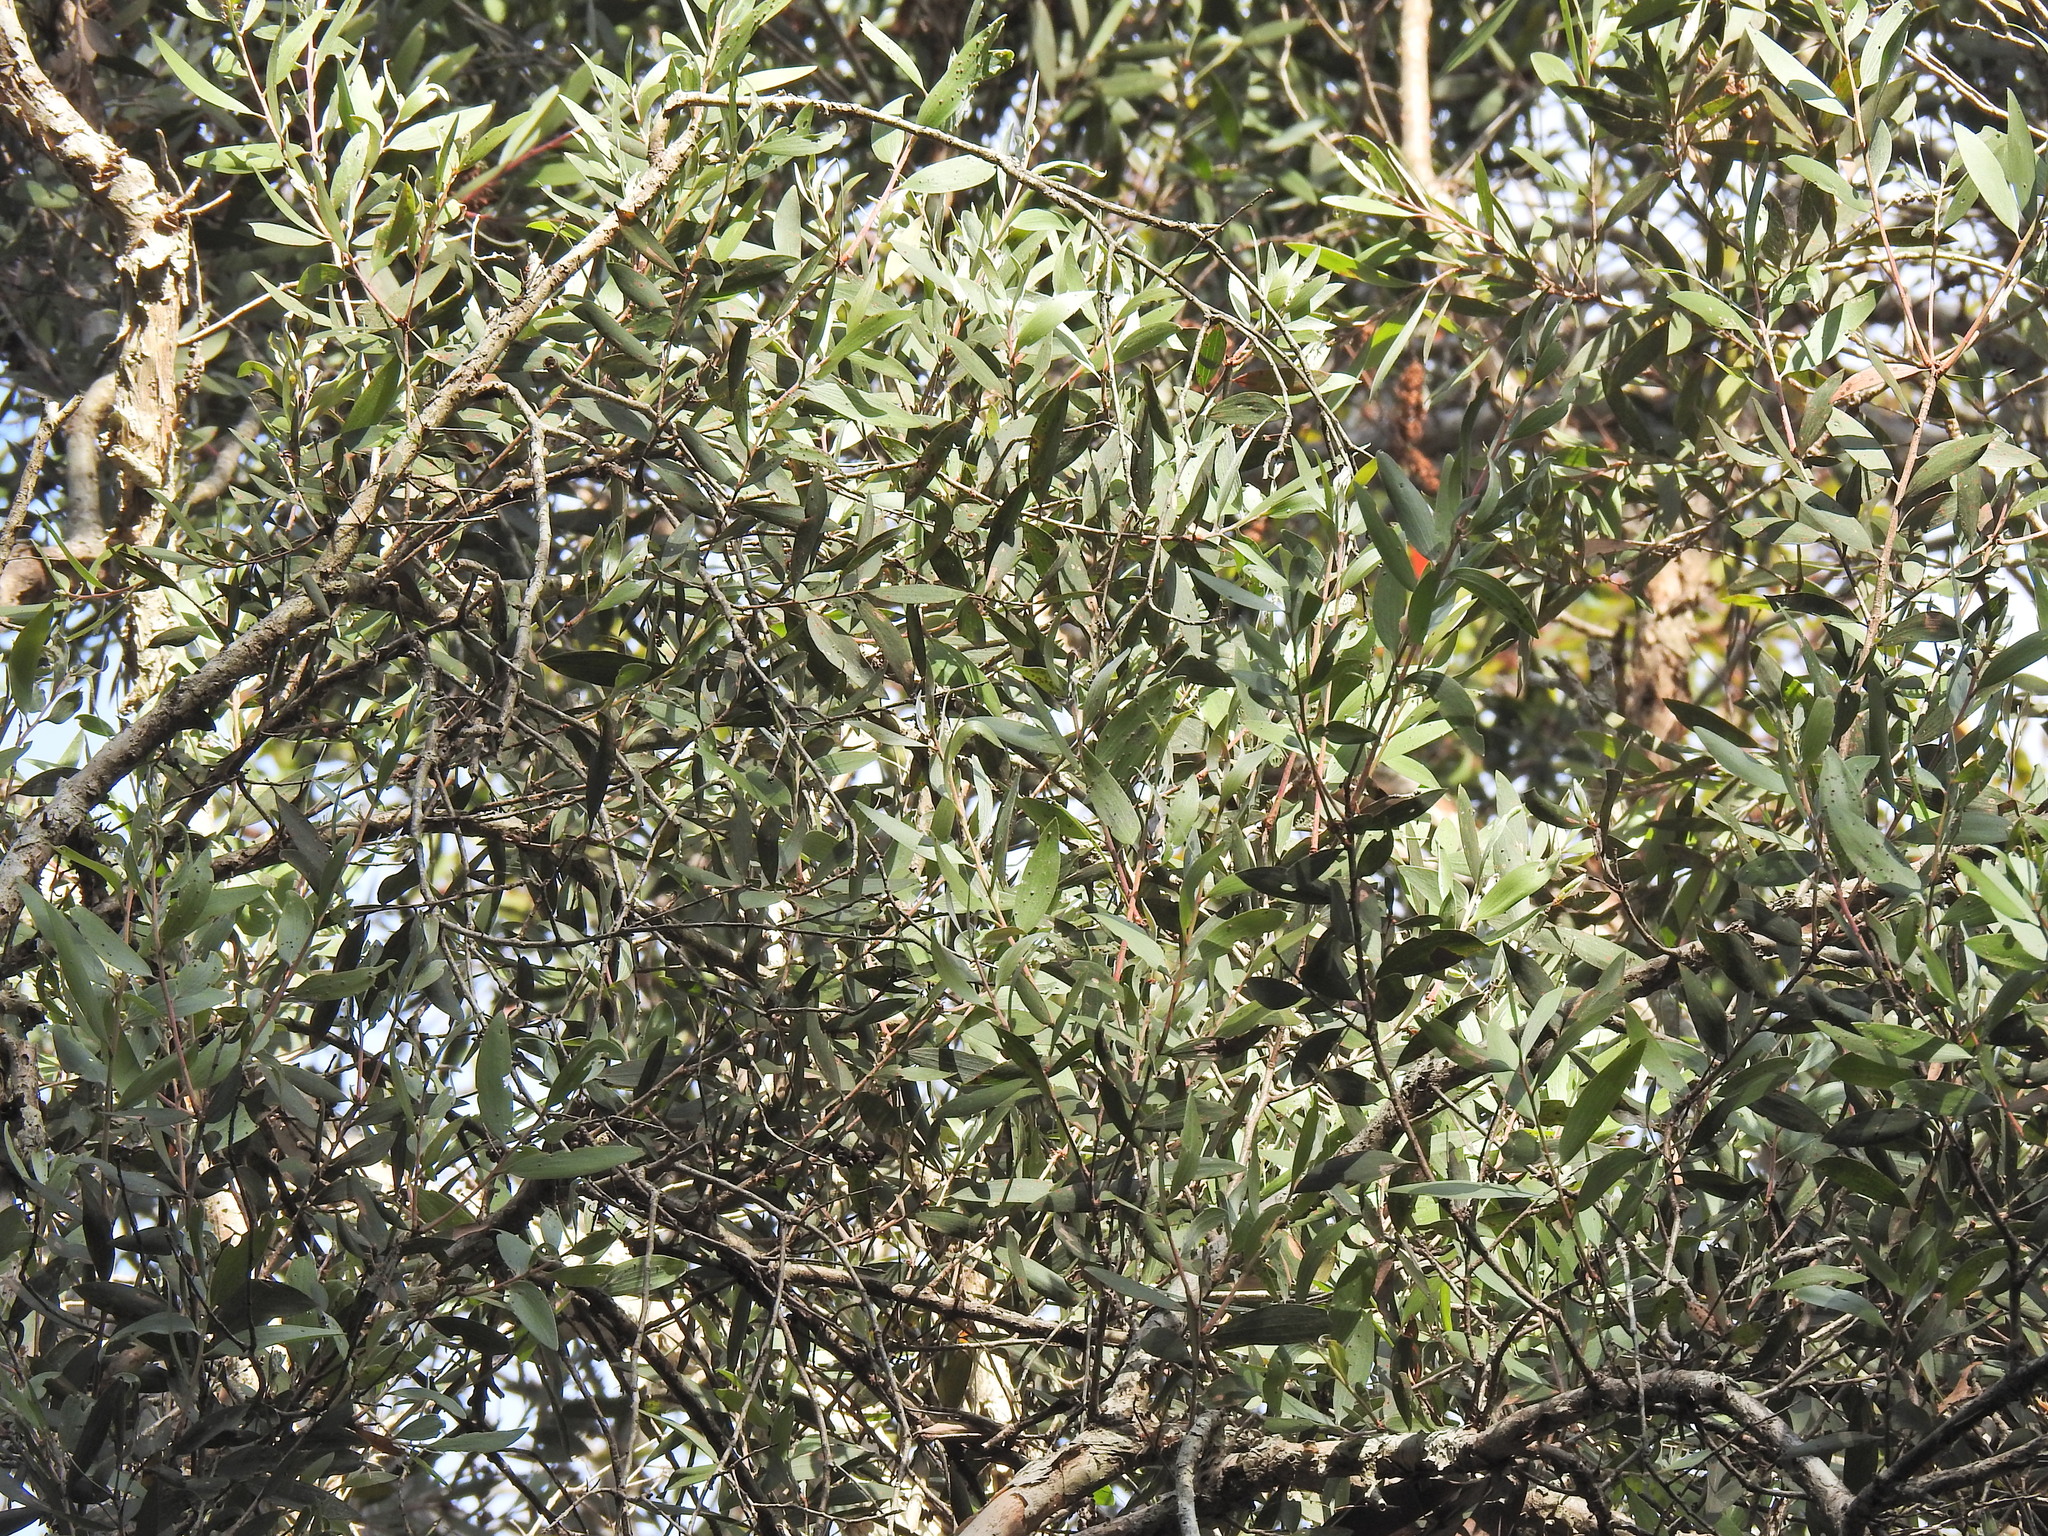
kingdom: Plantae
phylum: Tracheophyta
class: Magnoliopsida
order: Myrtales
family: Myrtaceae
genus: Melaleuca
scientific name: Melaleuca quinquenervia
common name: Punktree
